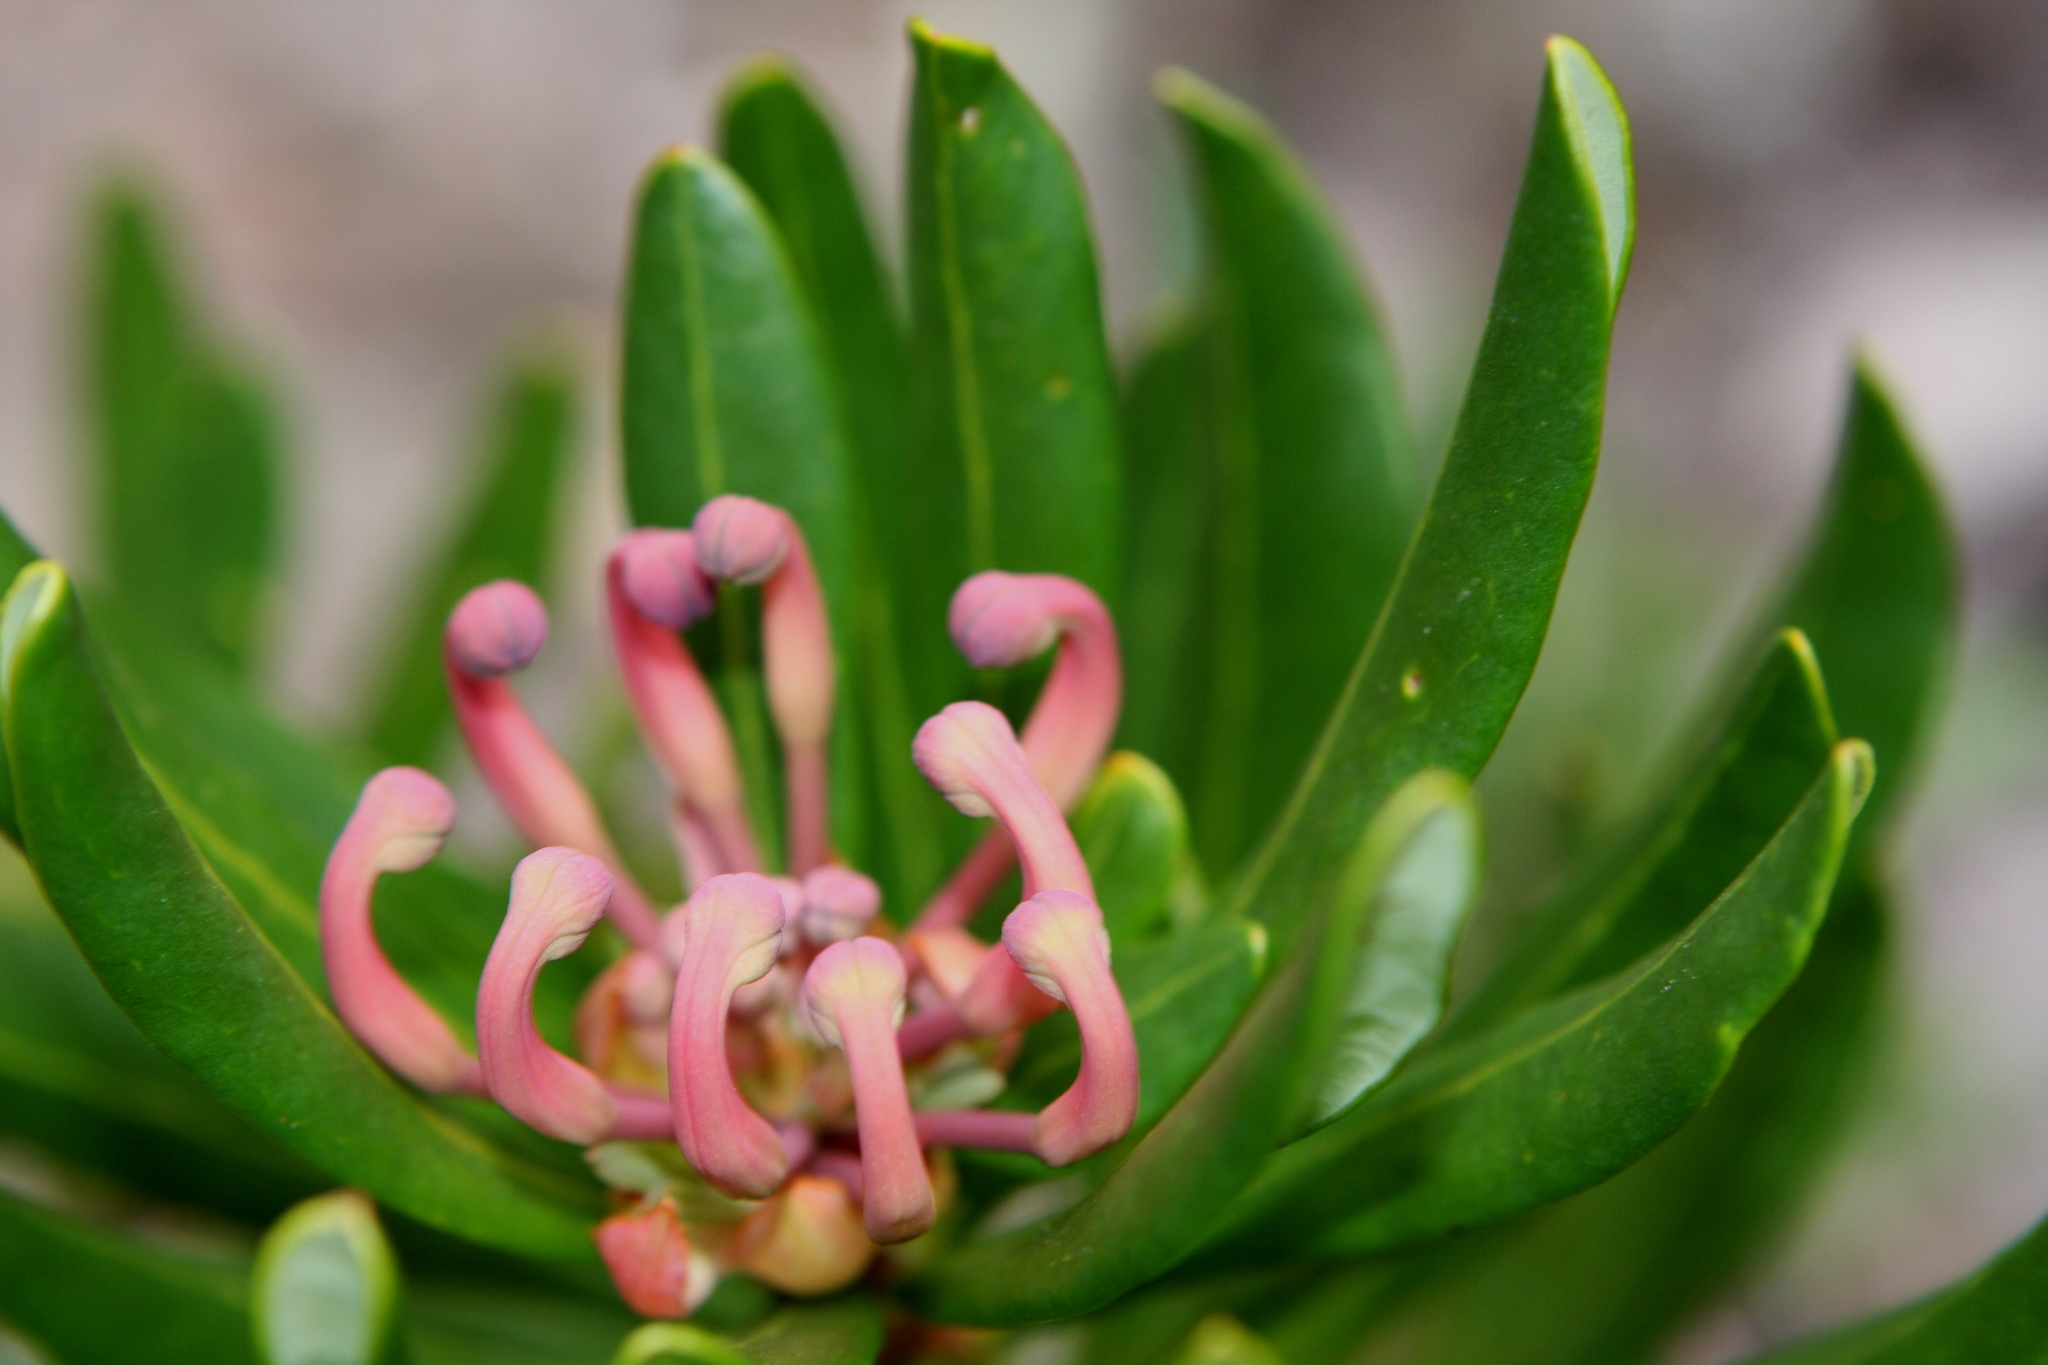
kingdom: Plantae
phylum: Tracheophyta
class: Magnoliopsida
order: Proteales
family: Proteaceae
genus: Telopea
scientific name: Telopea truncata
